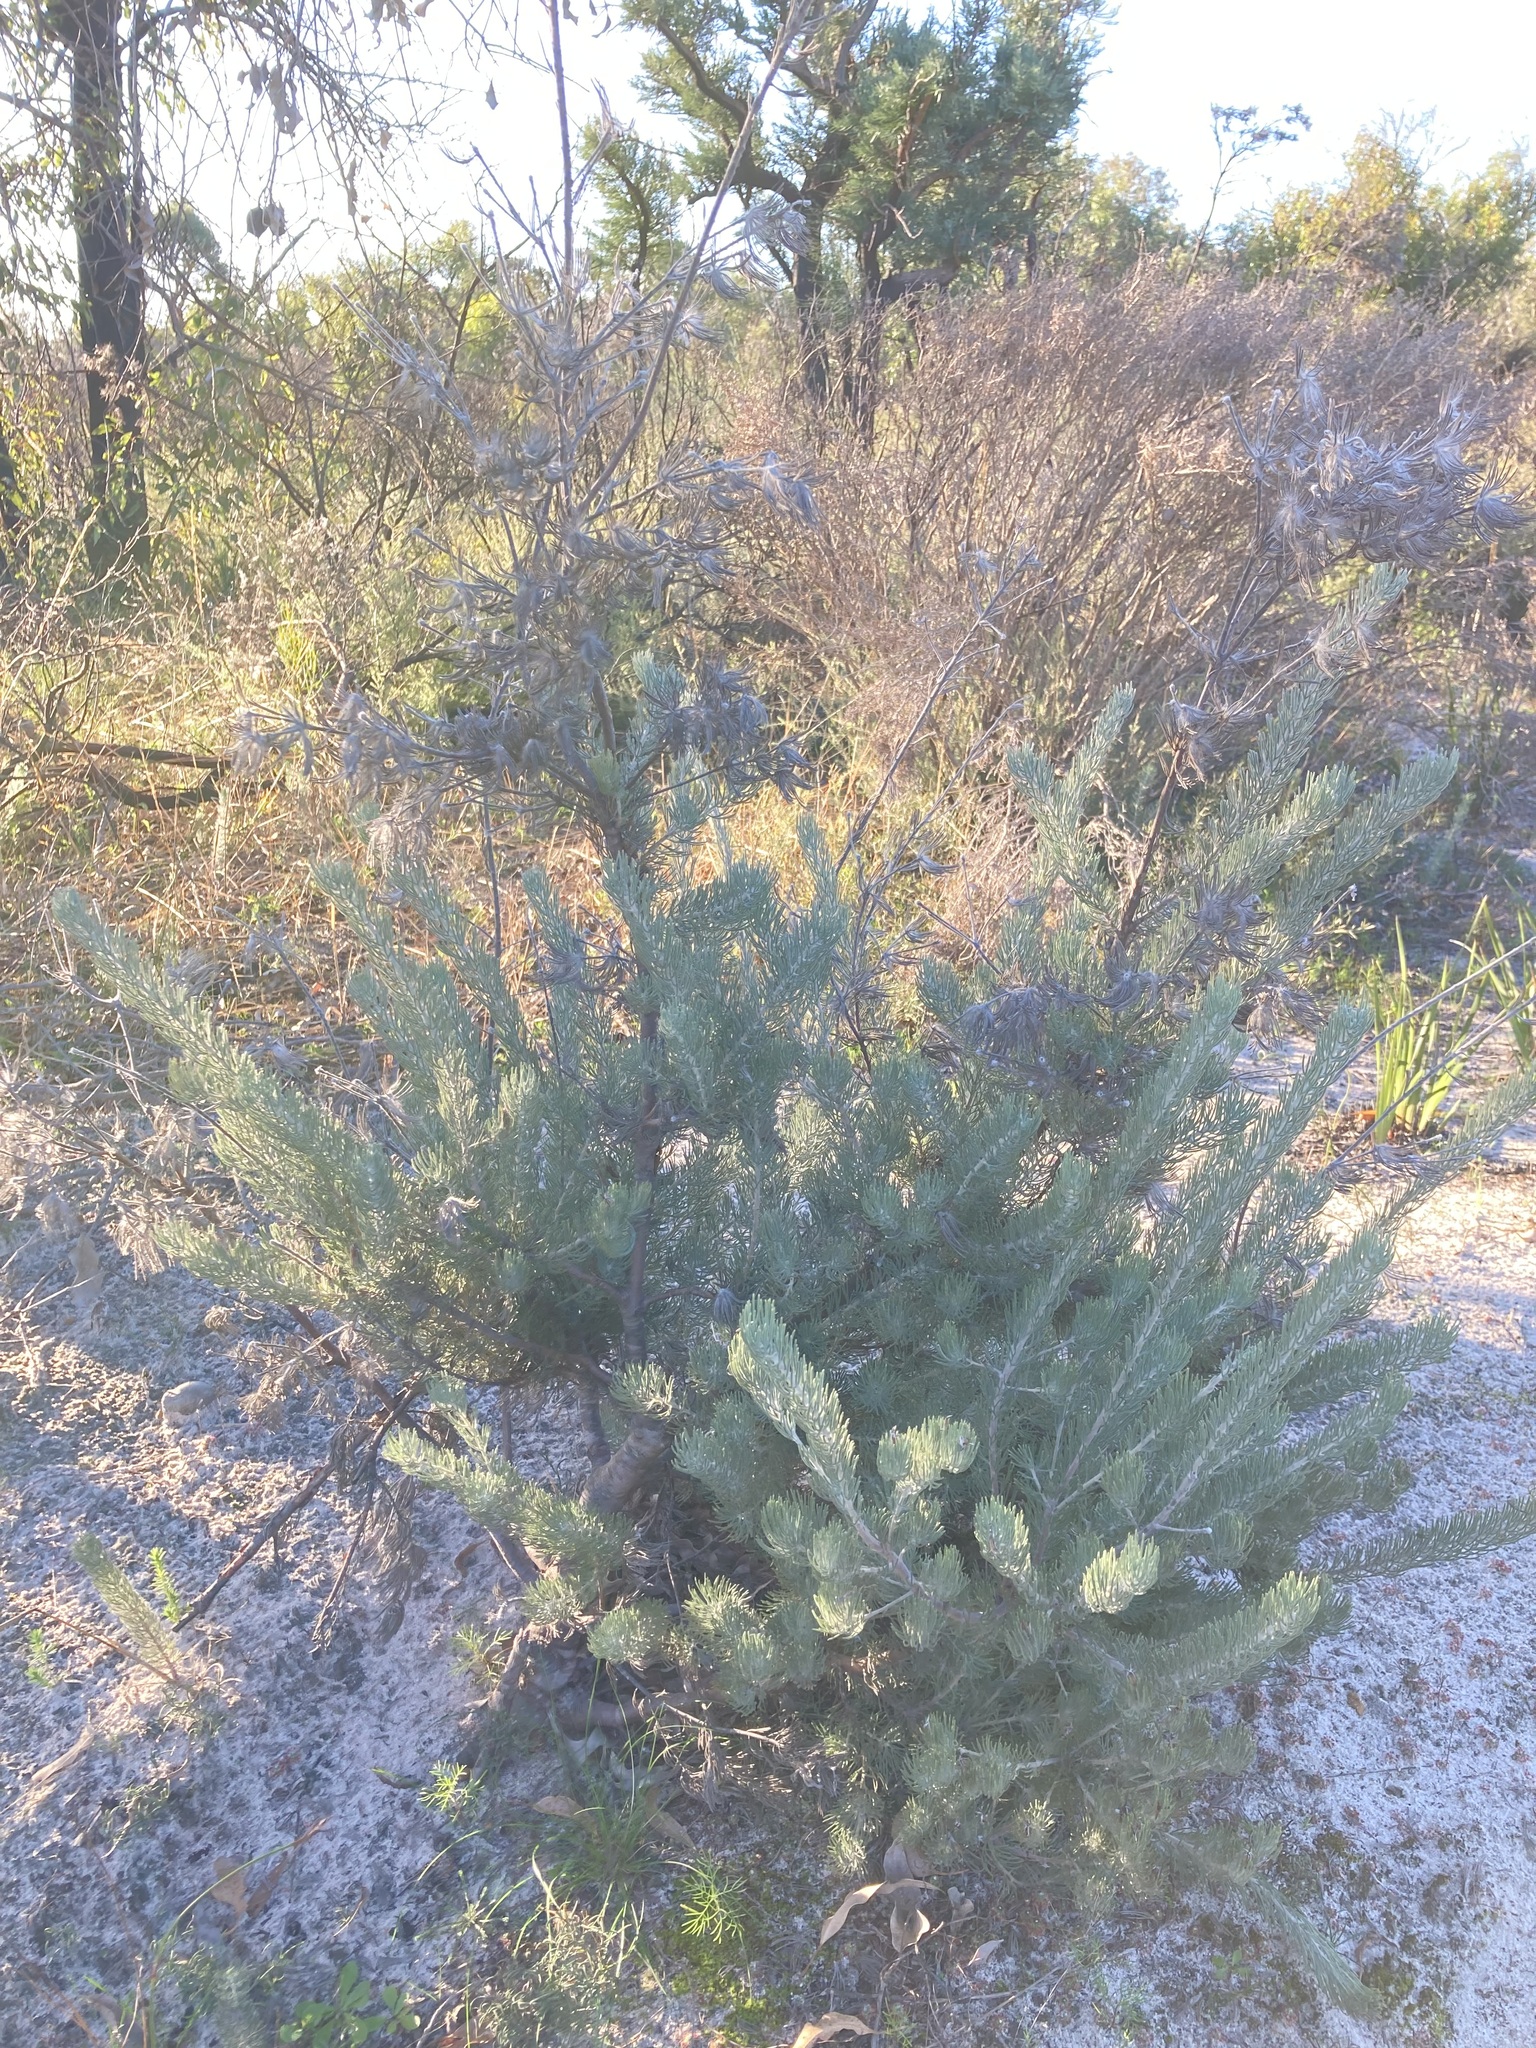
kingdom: Plantae
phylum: Tracheophyta
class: Magnoliopsida
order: Proteales
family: Proteaceae
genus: Adenanthos
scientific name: Adenanthos cygnorum
